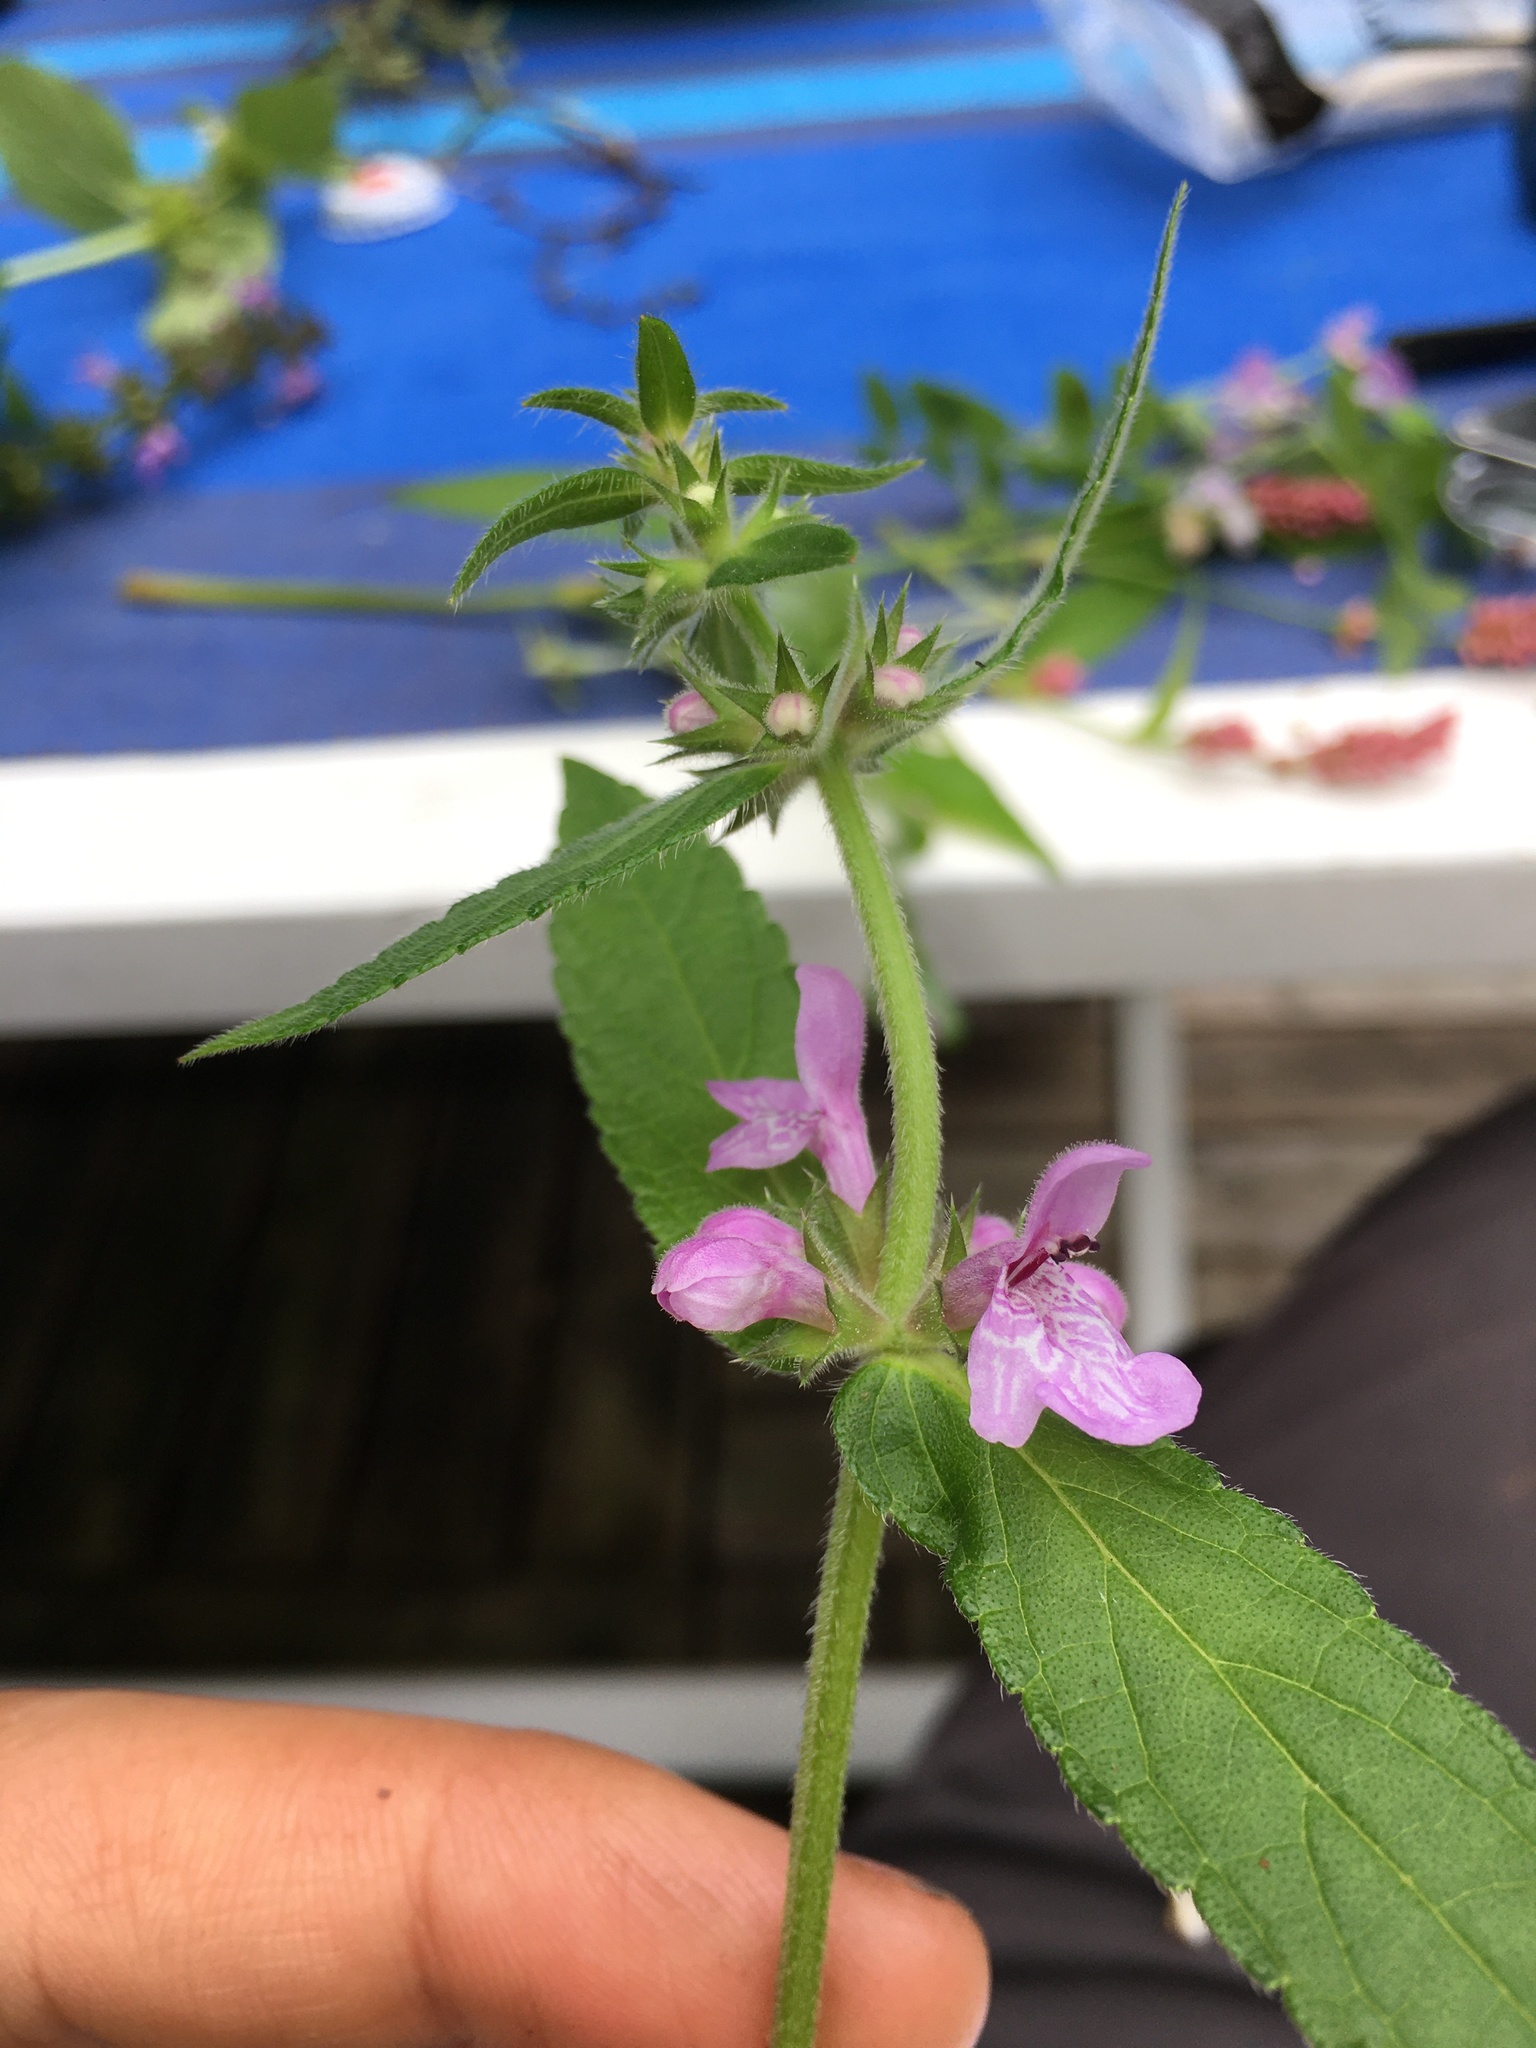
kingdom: Plantae
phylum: Tracheophyta
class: Magnoliopsida
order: Lamiales
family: Lamiaceae
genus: Stachys
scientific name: Stachys palustris
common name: Marsh woundwort
